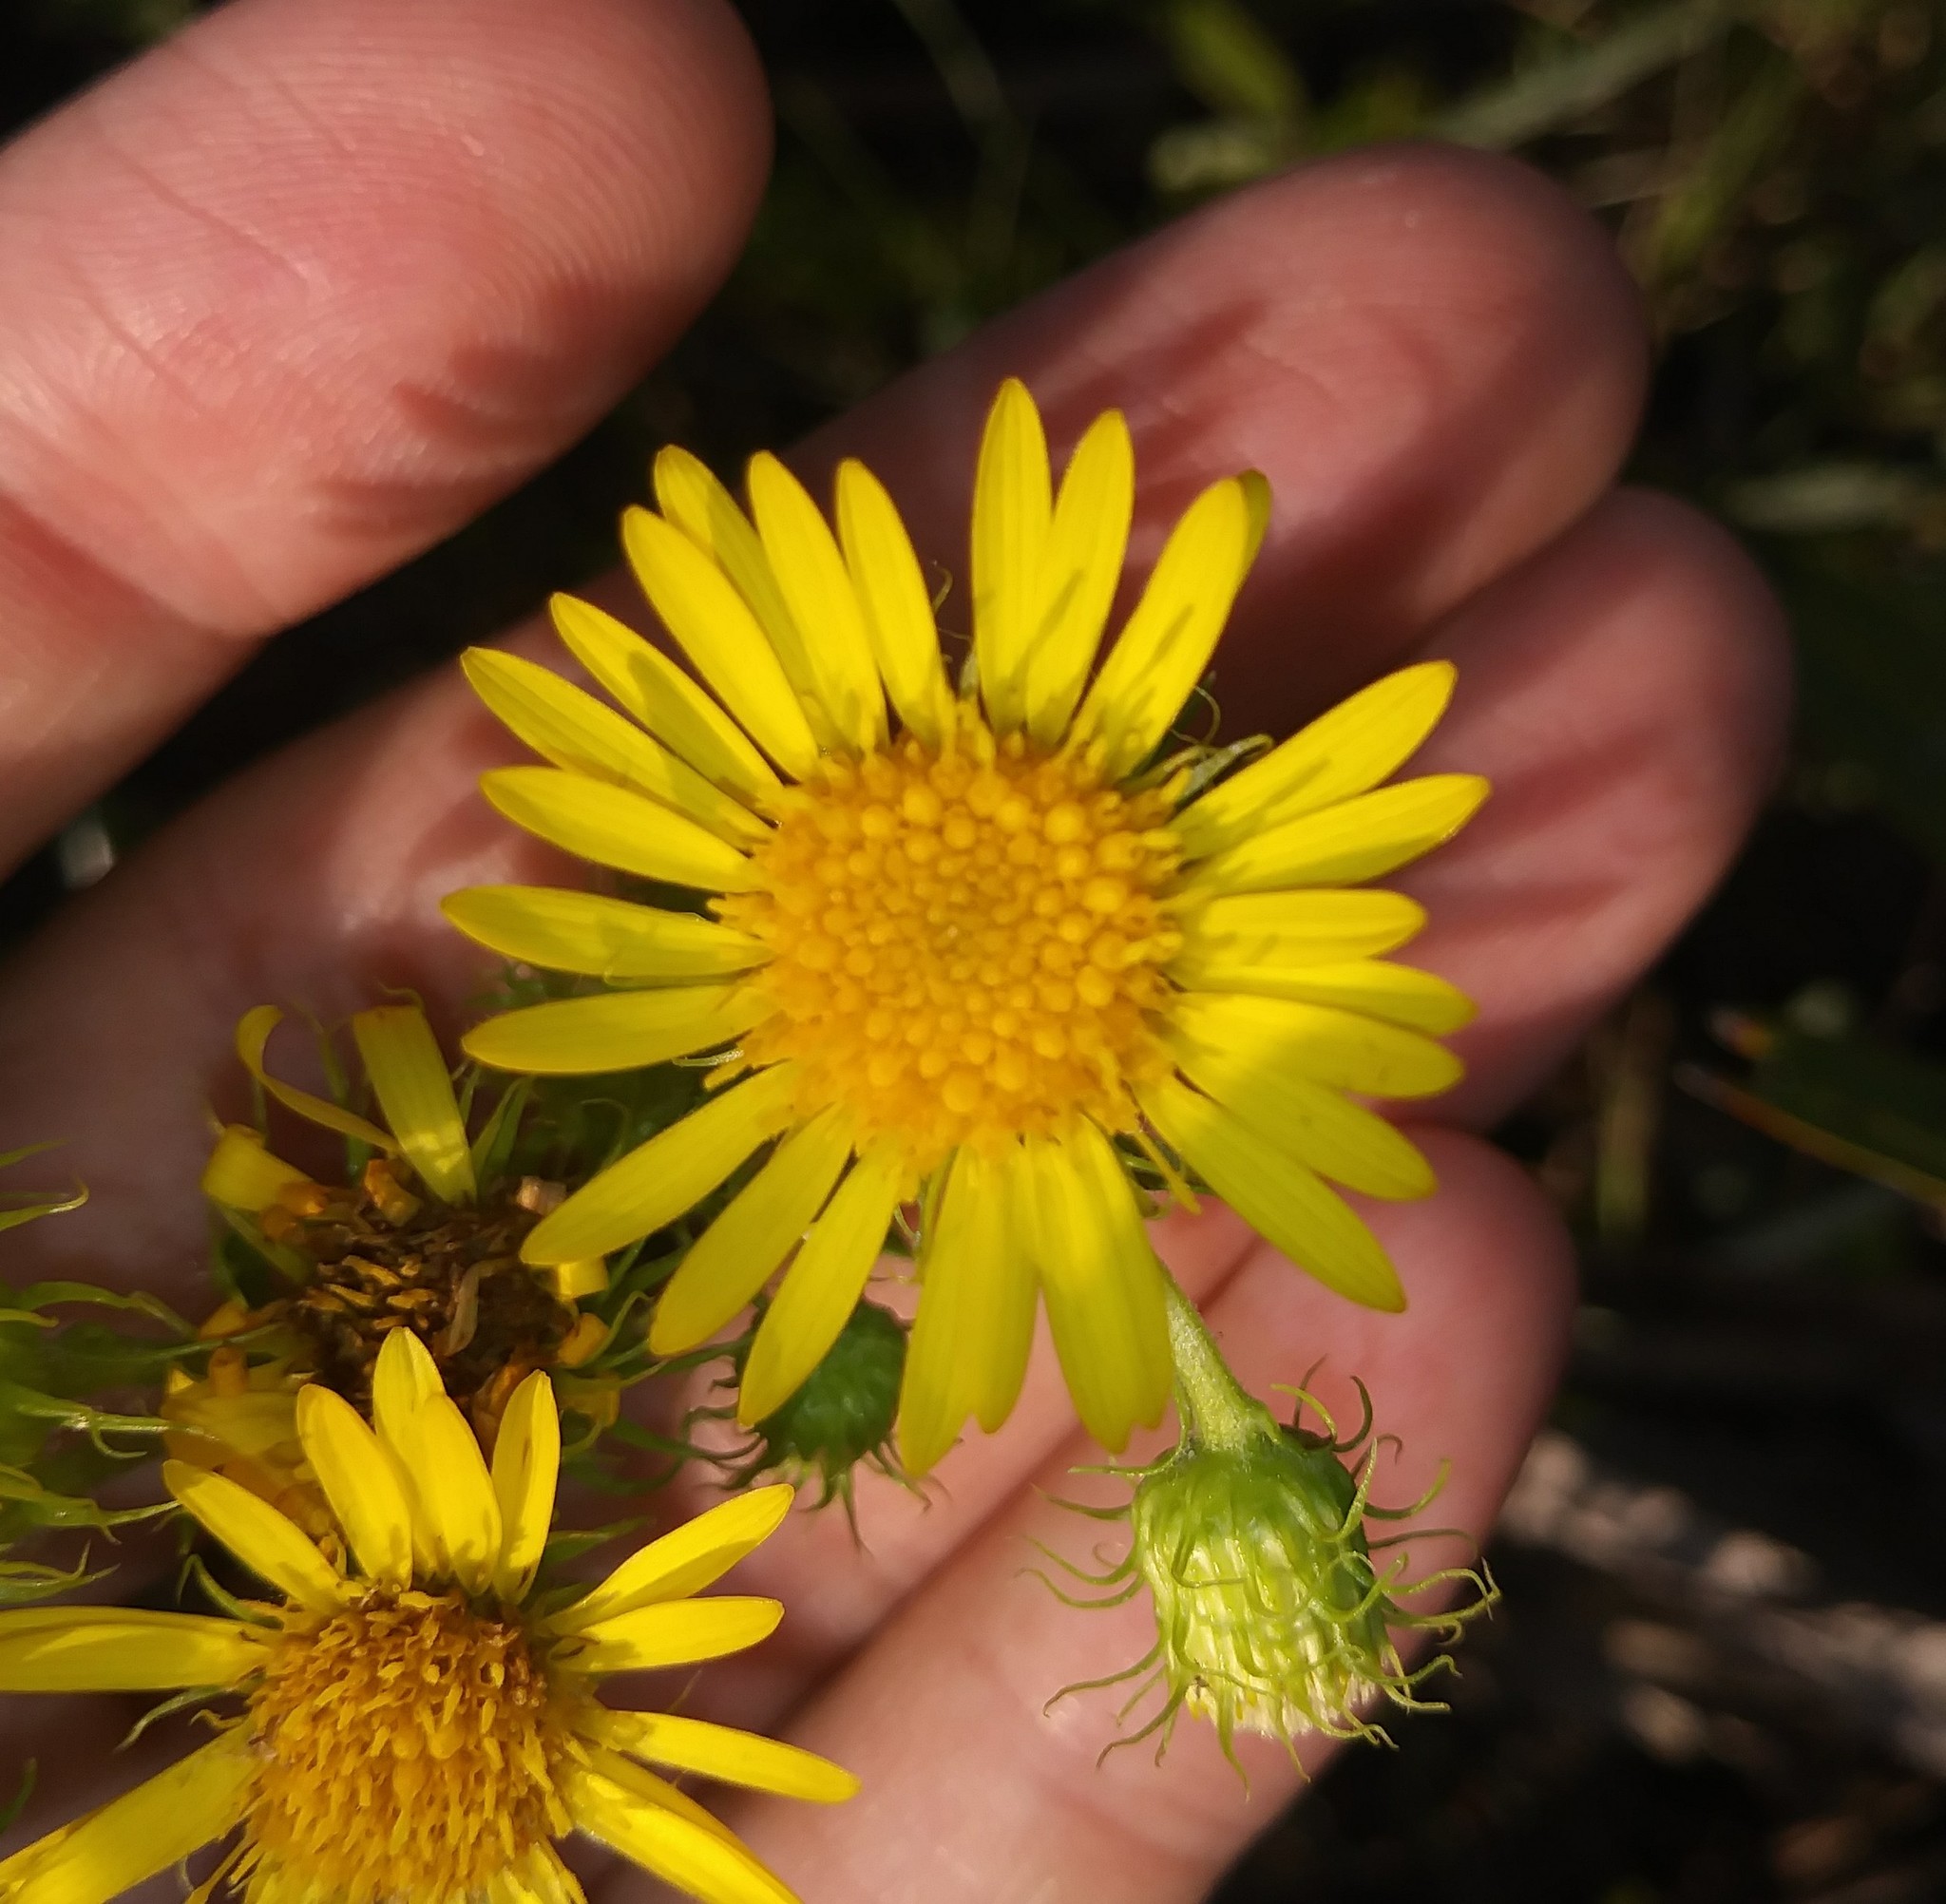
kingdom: Plantae
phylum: Tracheophyta
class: Magnoliopsida
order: Asterales
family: Asteraceae
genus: Chrysopsis
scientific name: Chrysopsis subulata
